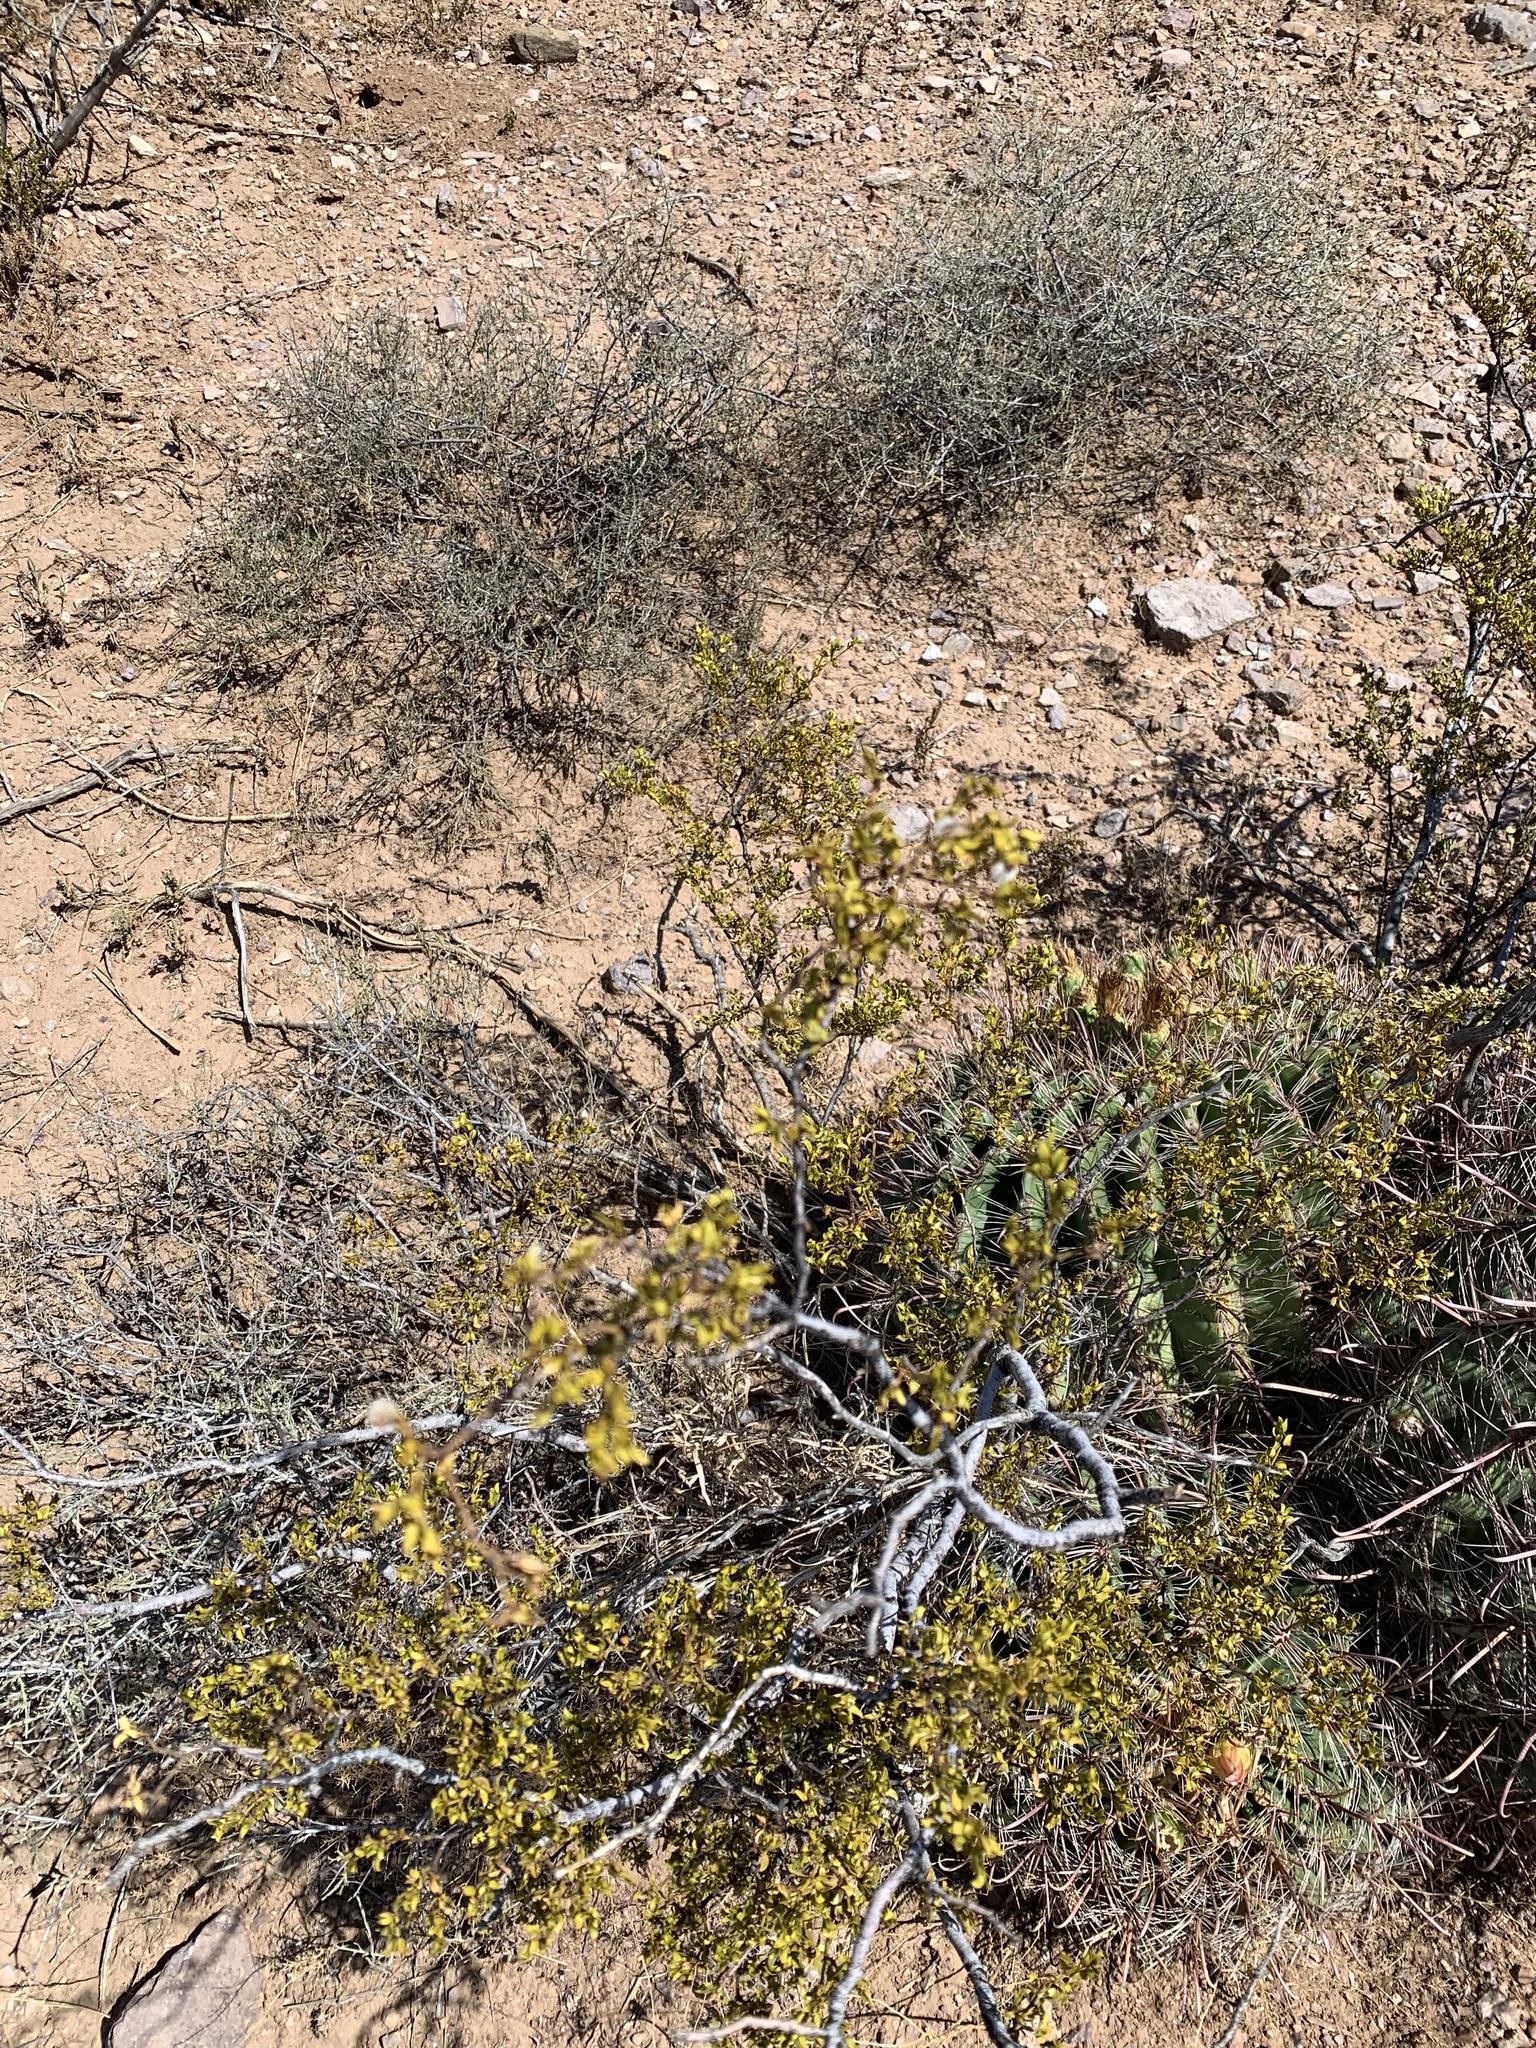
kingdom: Plantae
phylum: Tracheophyta
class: Magnoliopsida
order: Zygophyllales
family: Zygophyllaceae
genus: Larrea
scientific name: Larrea tridentata
